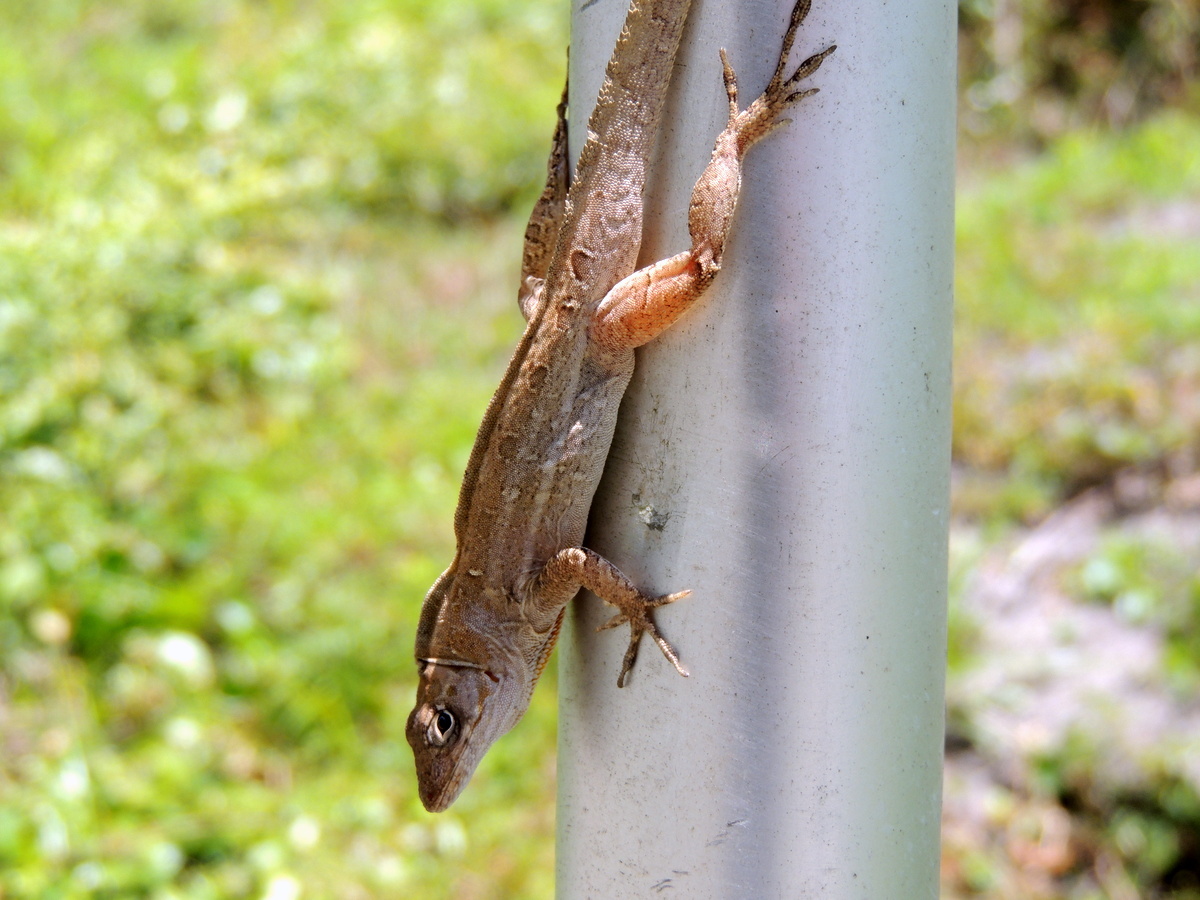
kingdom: Animalia
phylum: Chordata
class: Squamata
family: Dactyloidae
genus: Anolis
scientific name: Anolis sagrei
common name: Brown anole
